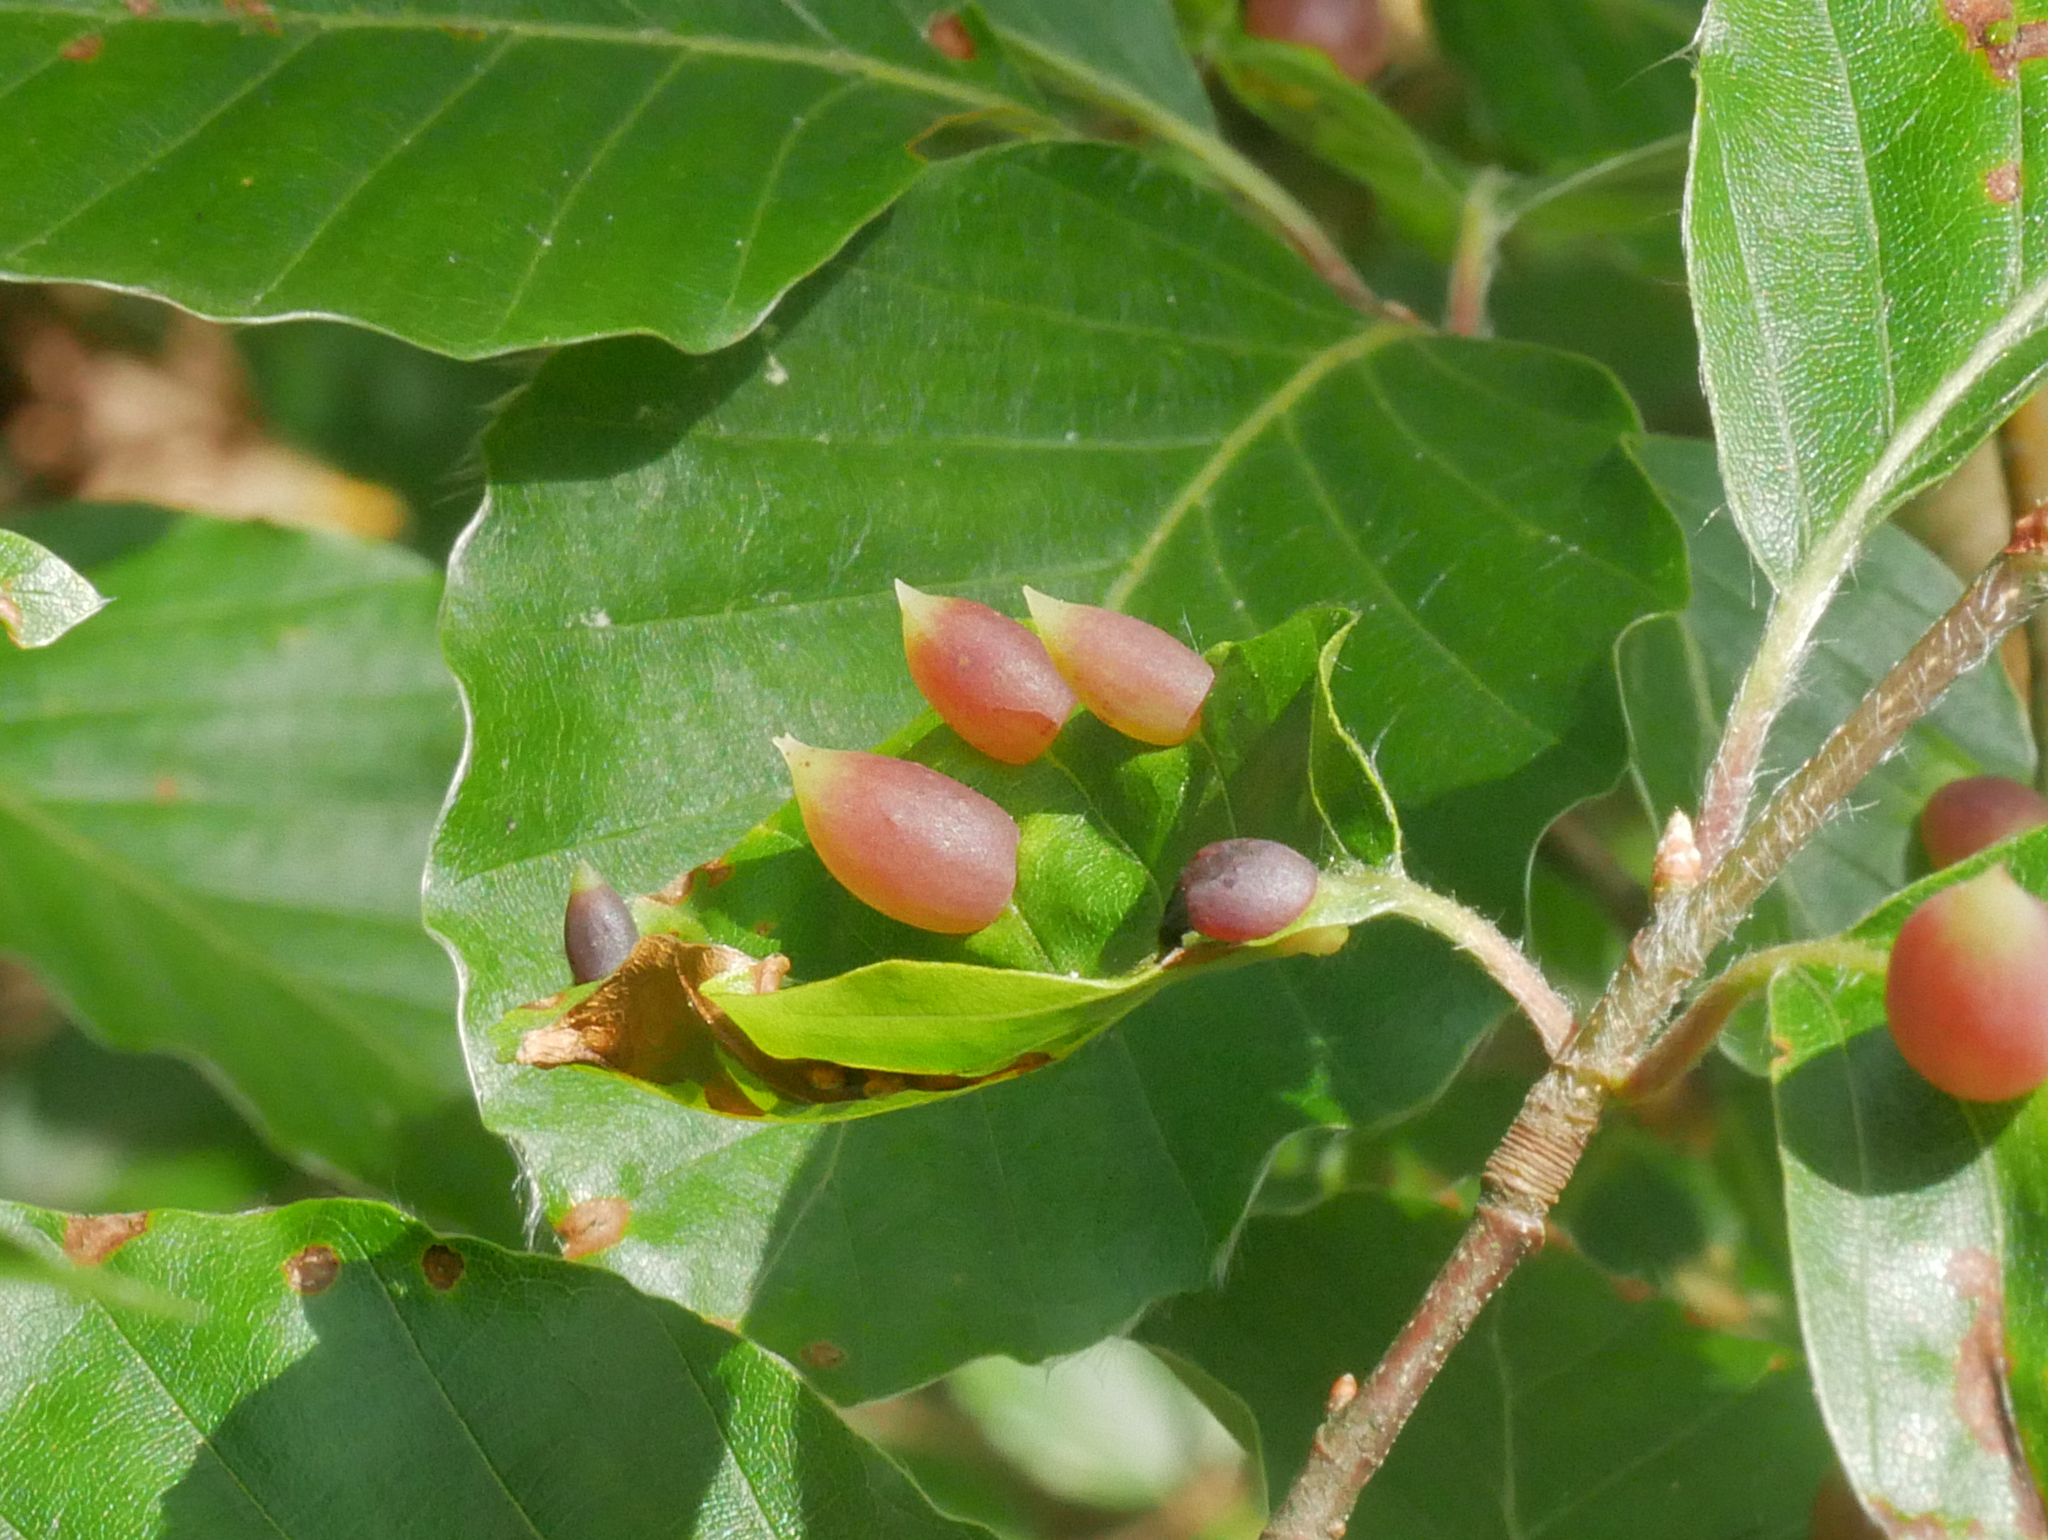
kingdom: Animalia
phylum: Arthropoda
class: Insecta
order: Diptera
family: Cecidomyiidae
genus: Mikiola
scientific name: Mikiola fagi
